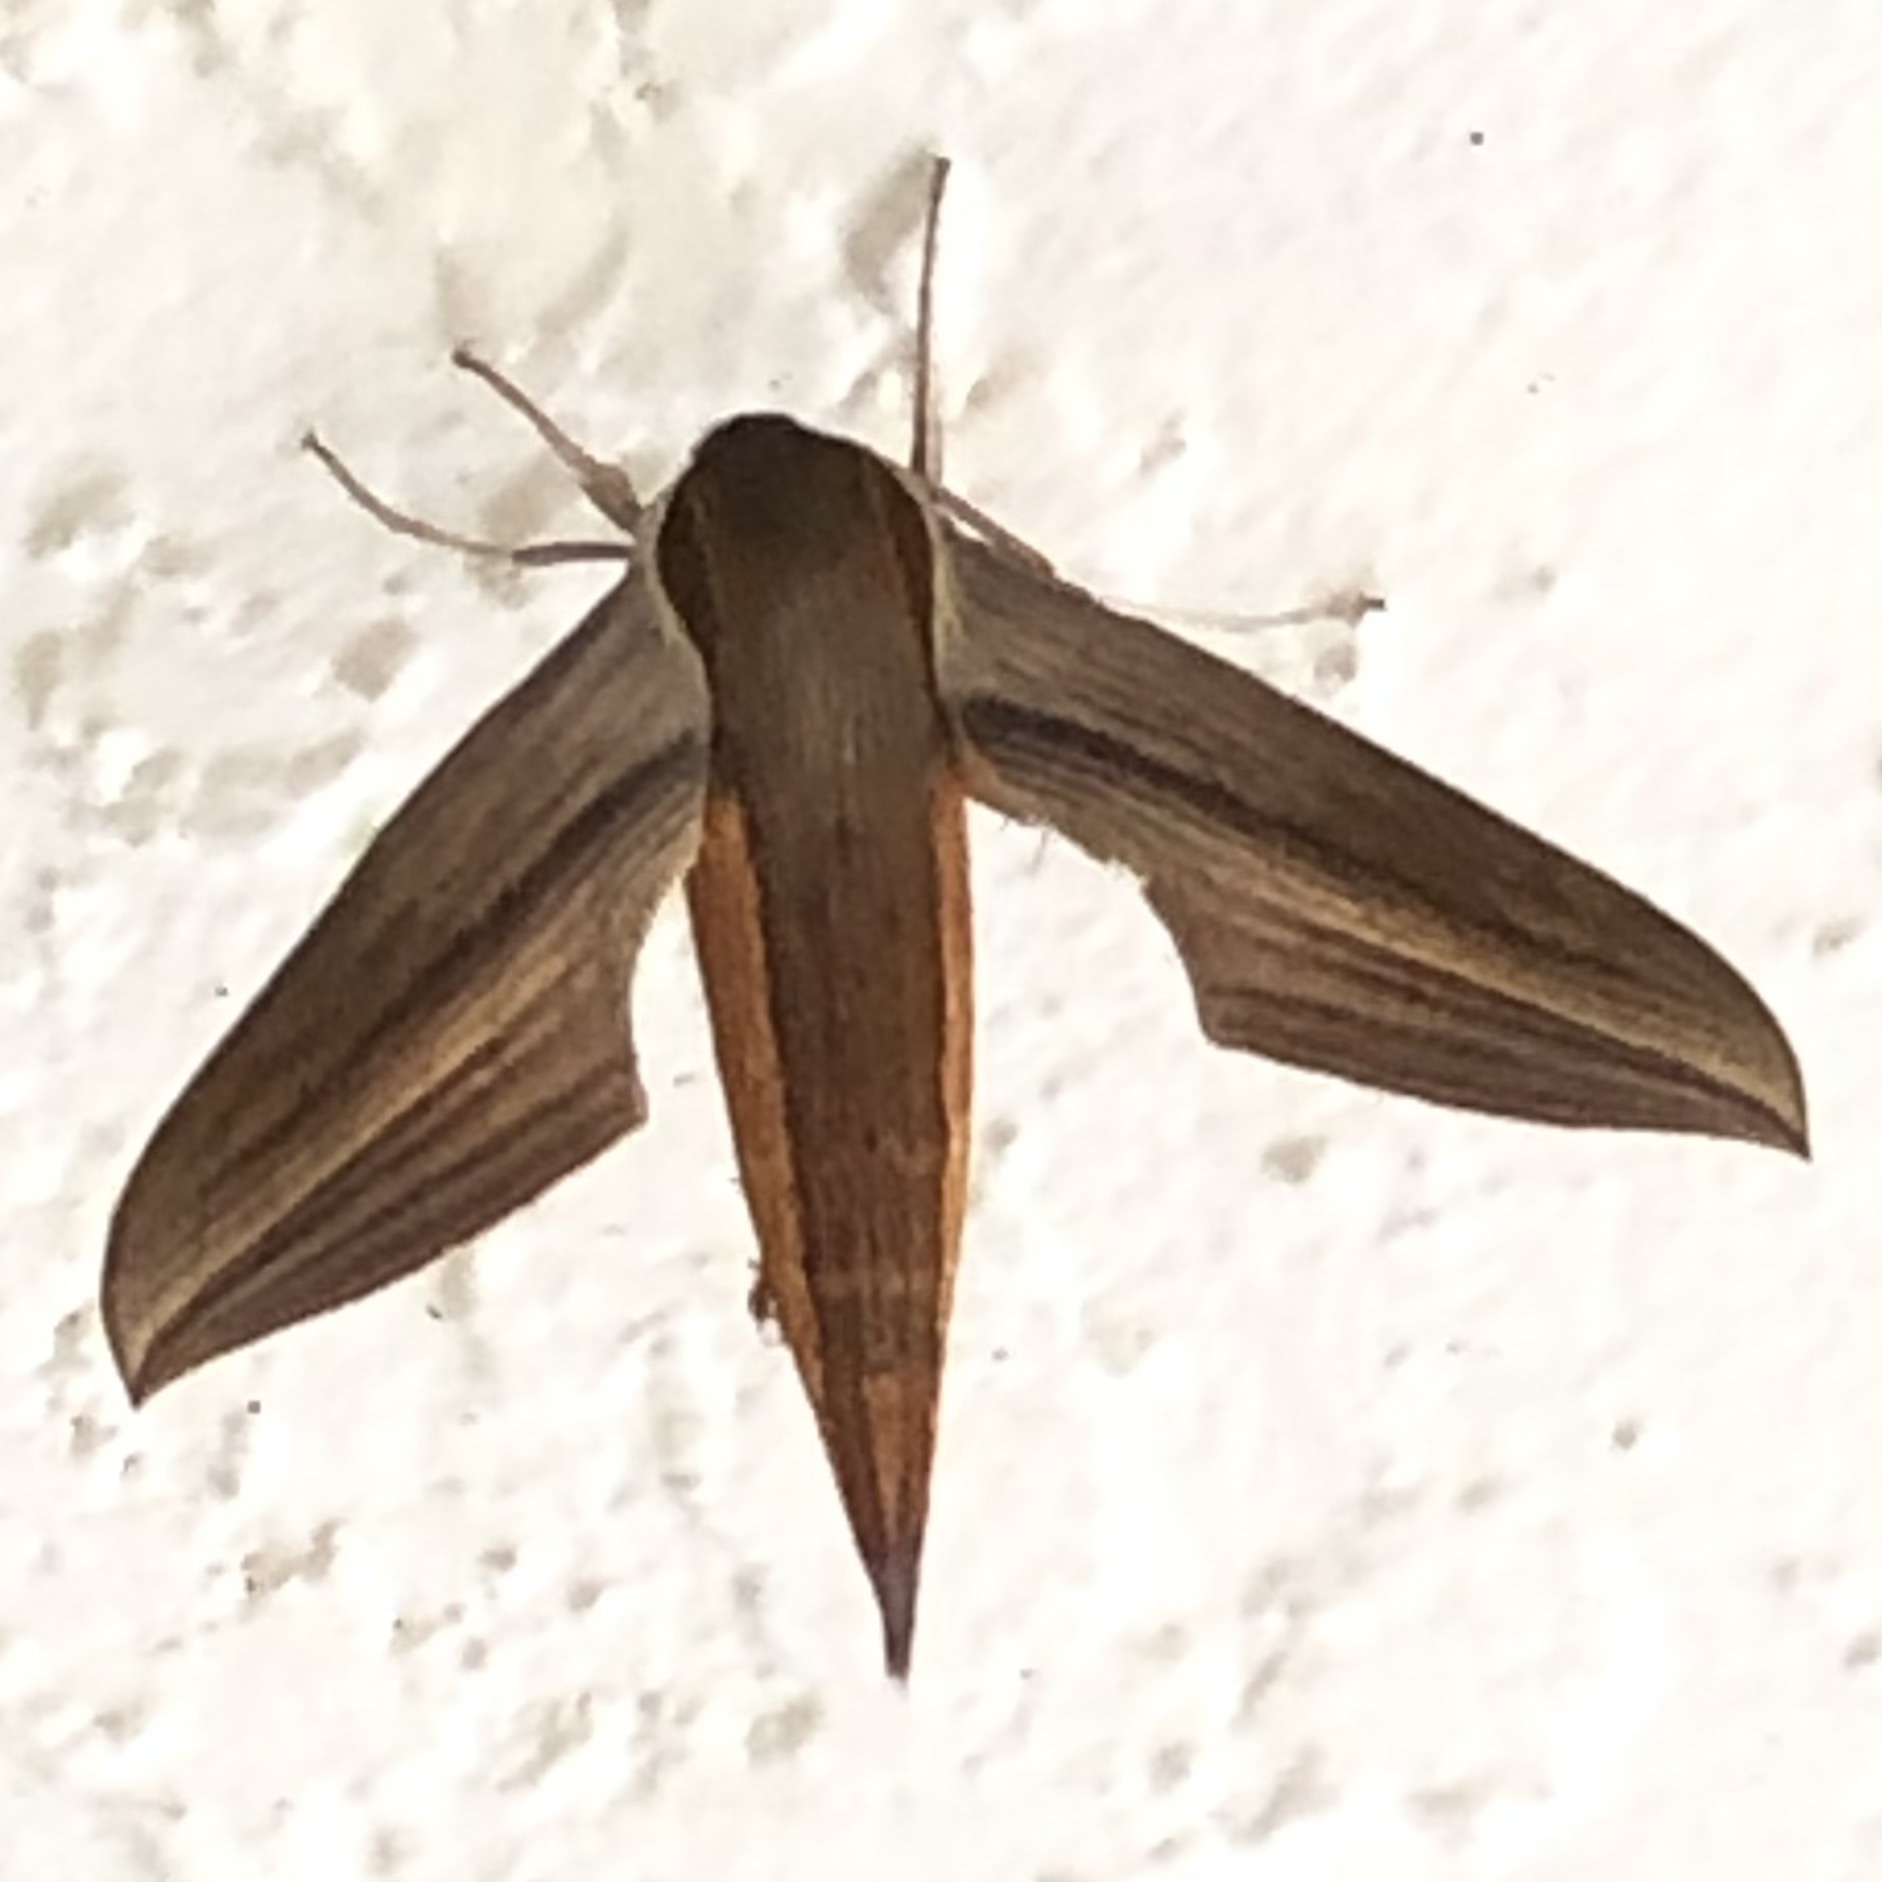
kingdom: Animalia
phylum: Arthropoda
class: Insecta
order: Lepidoptera
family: Sphingidae
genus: Xylophanes
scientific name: Xylophanes tersa
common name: Tersa sphinx
